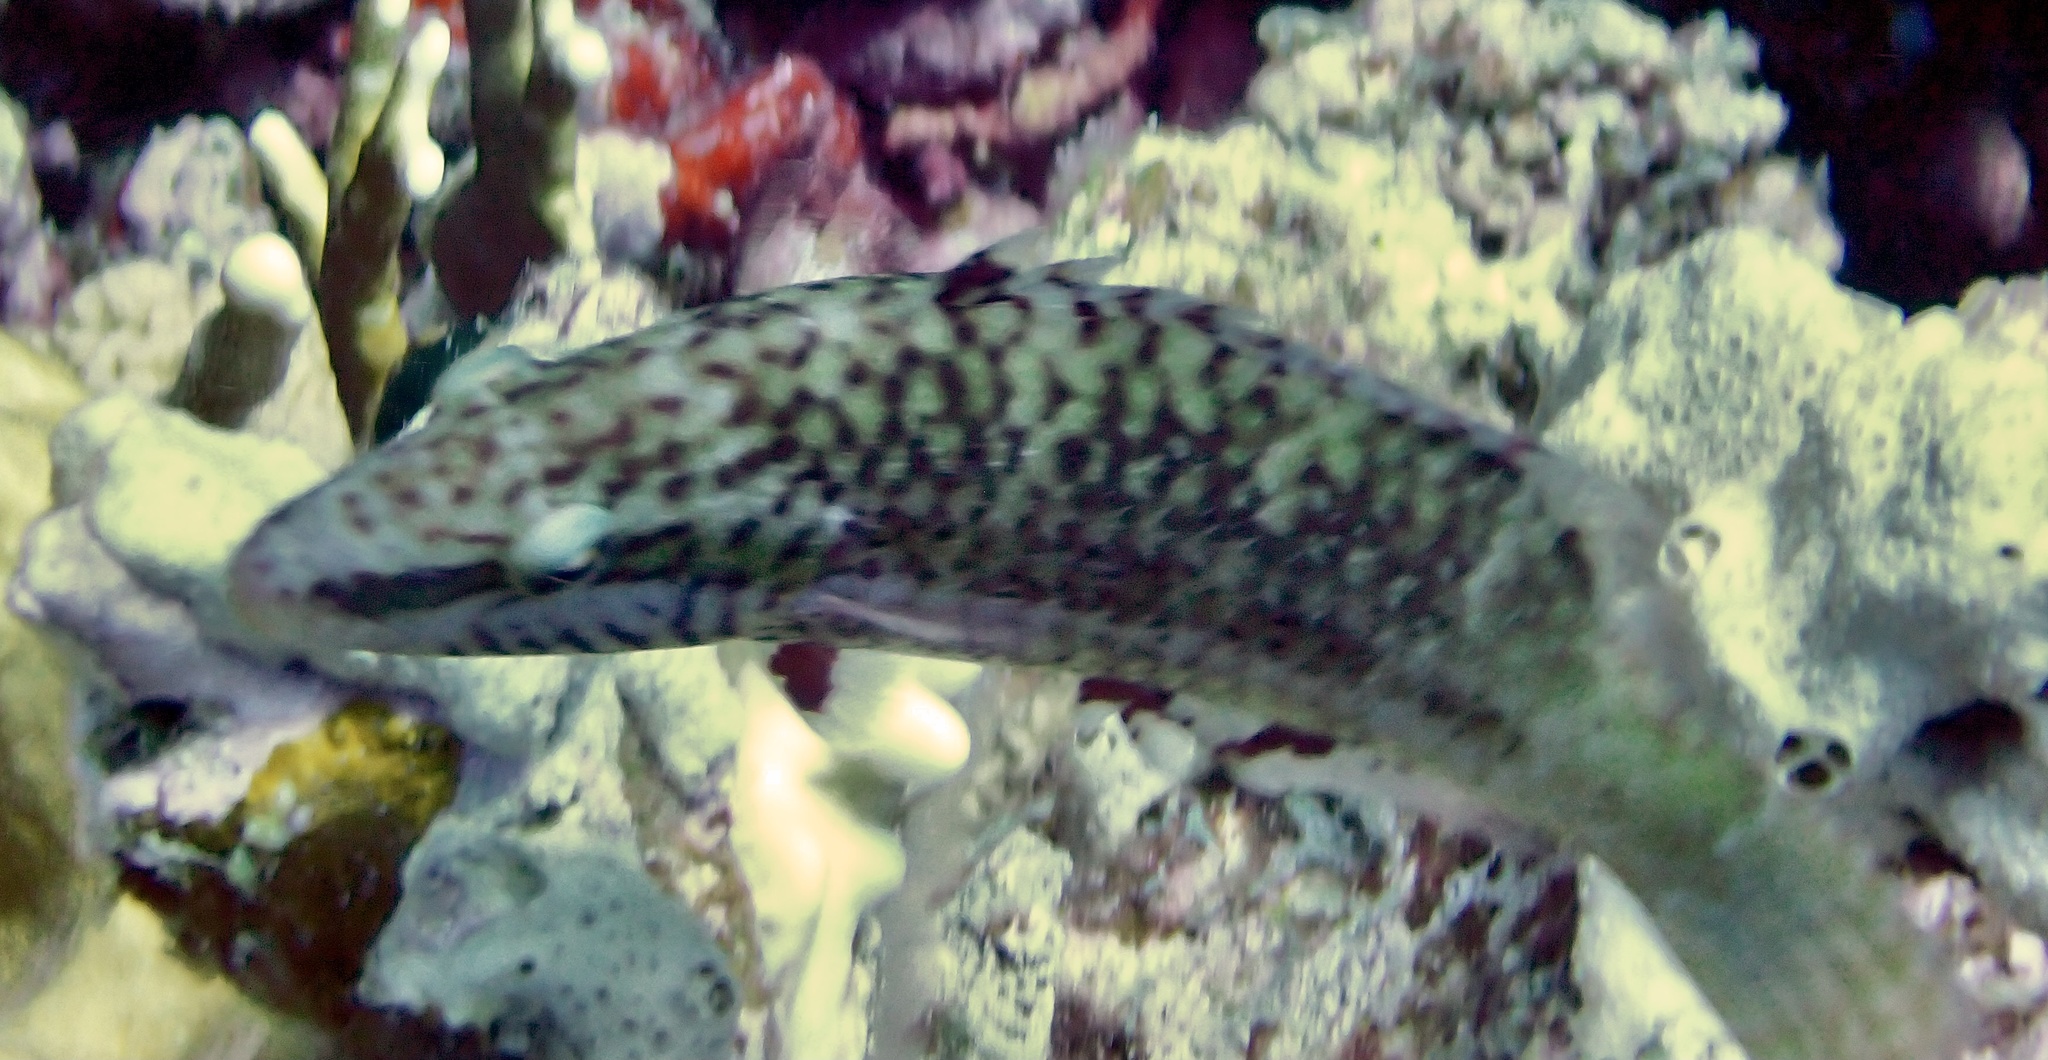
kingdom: Animalia
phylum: Chordata
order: Perciformes
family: Labridae
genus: Oxycheilinus
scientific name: Oxycheilinus digramma
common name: Bandcheek wrasse
